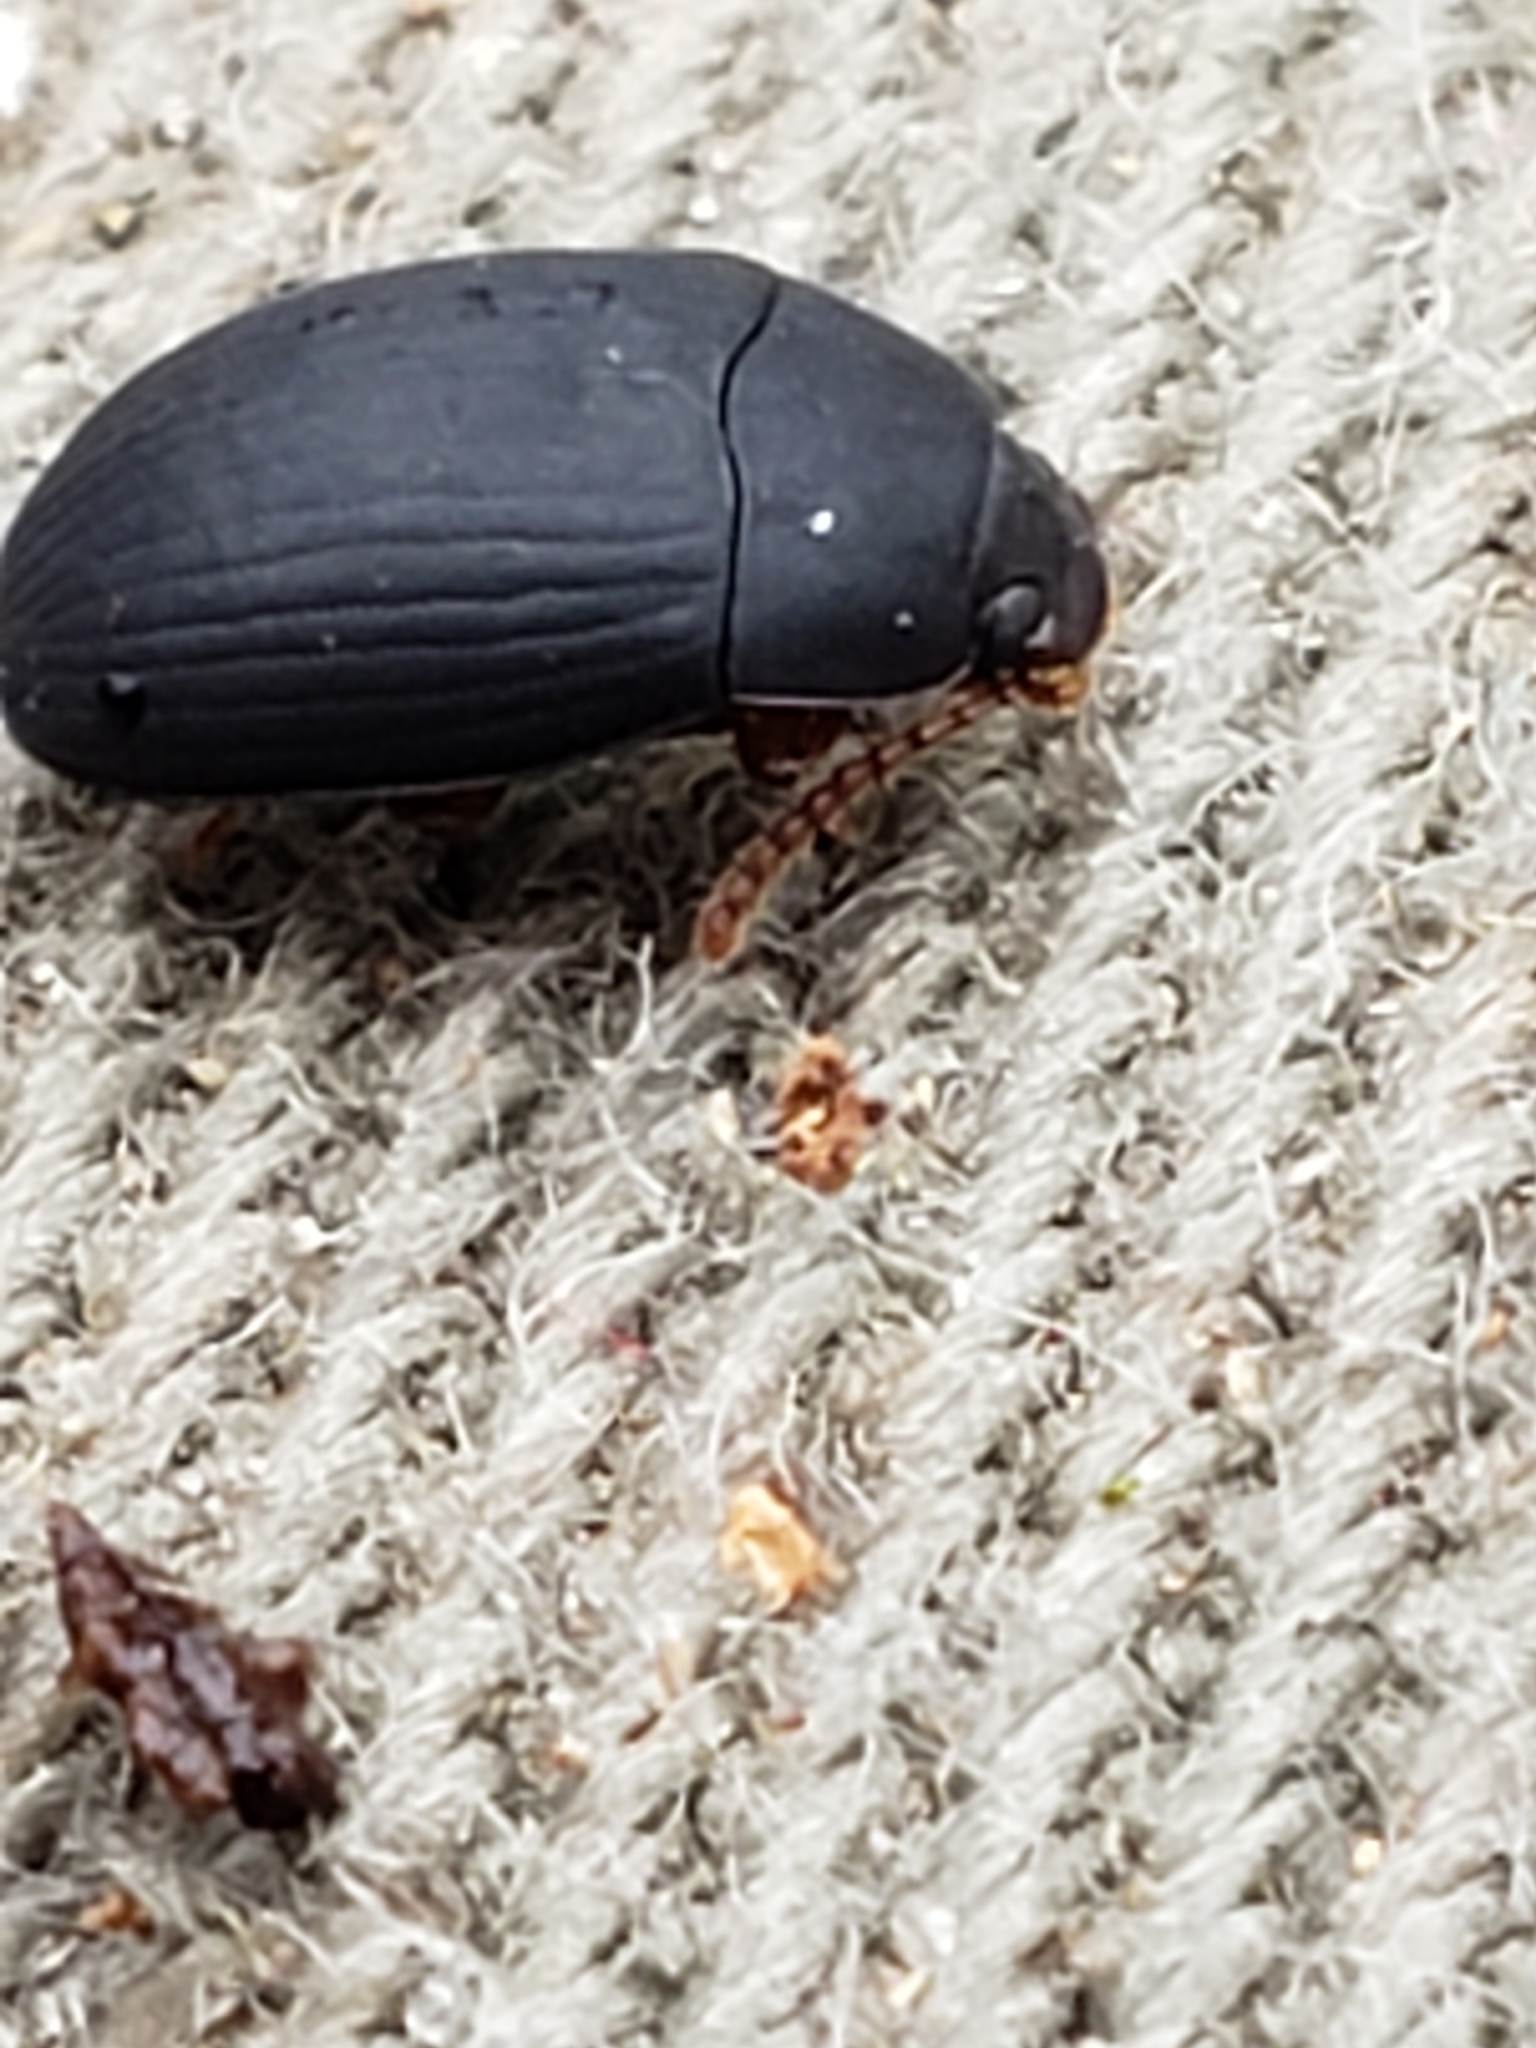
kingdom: Animalia
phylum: Arthropoda
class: Insecta
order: Coleoptera
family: Tenebrionidae
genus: Platydema
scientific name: Platydema ruficornis
